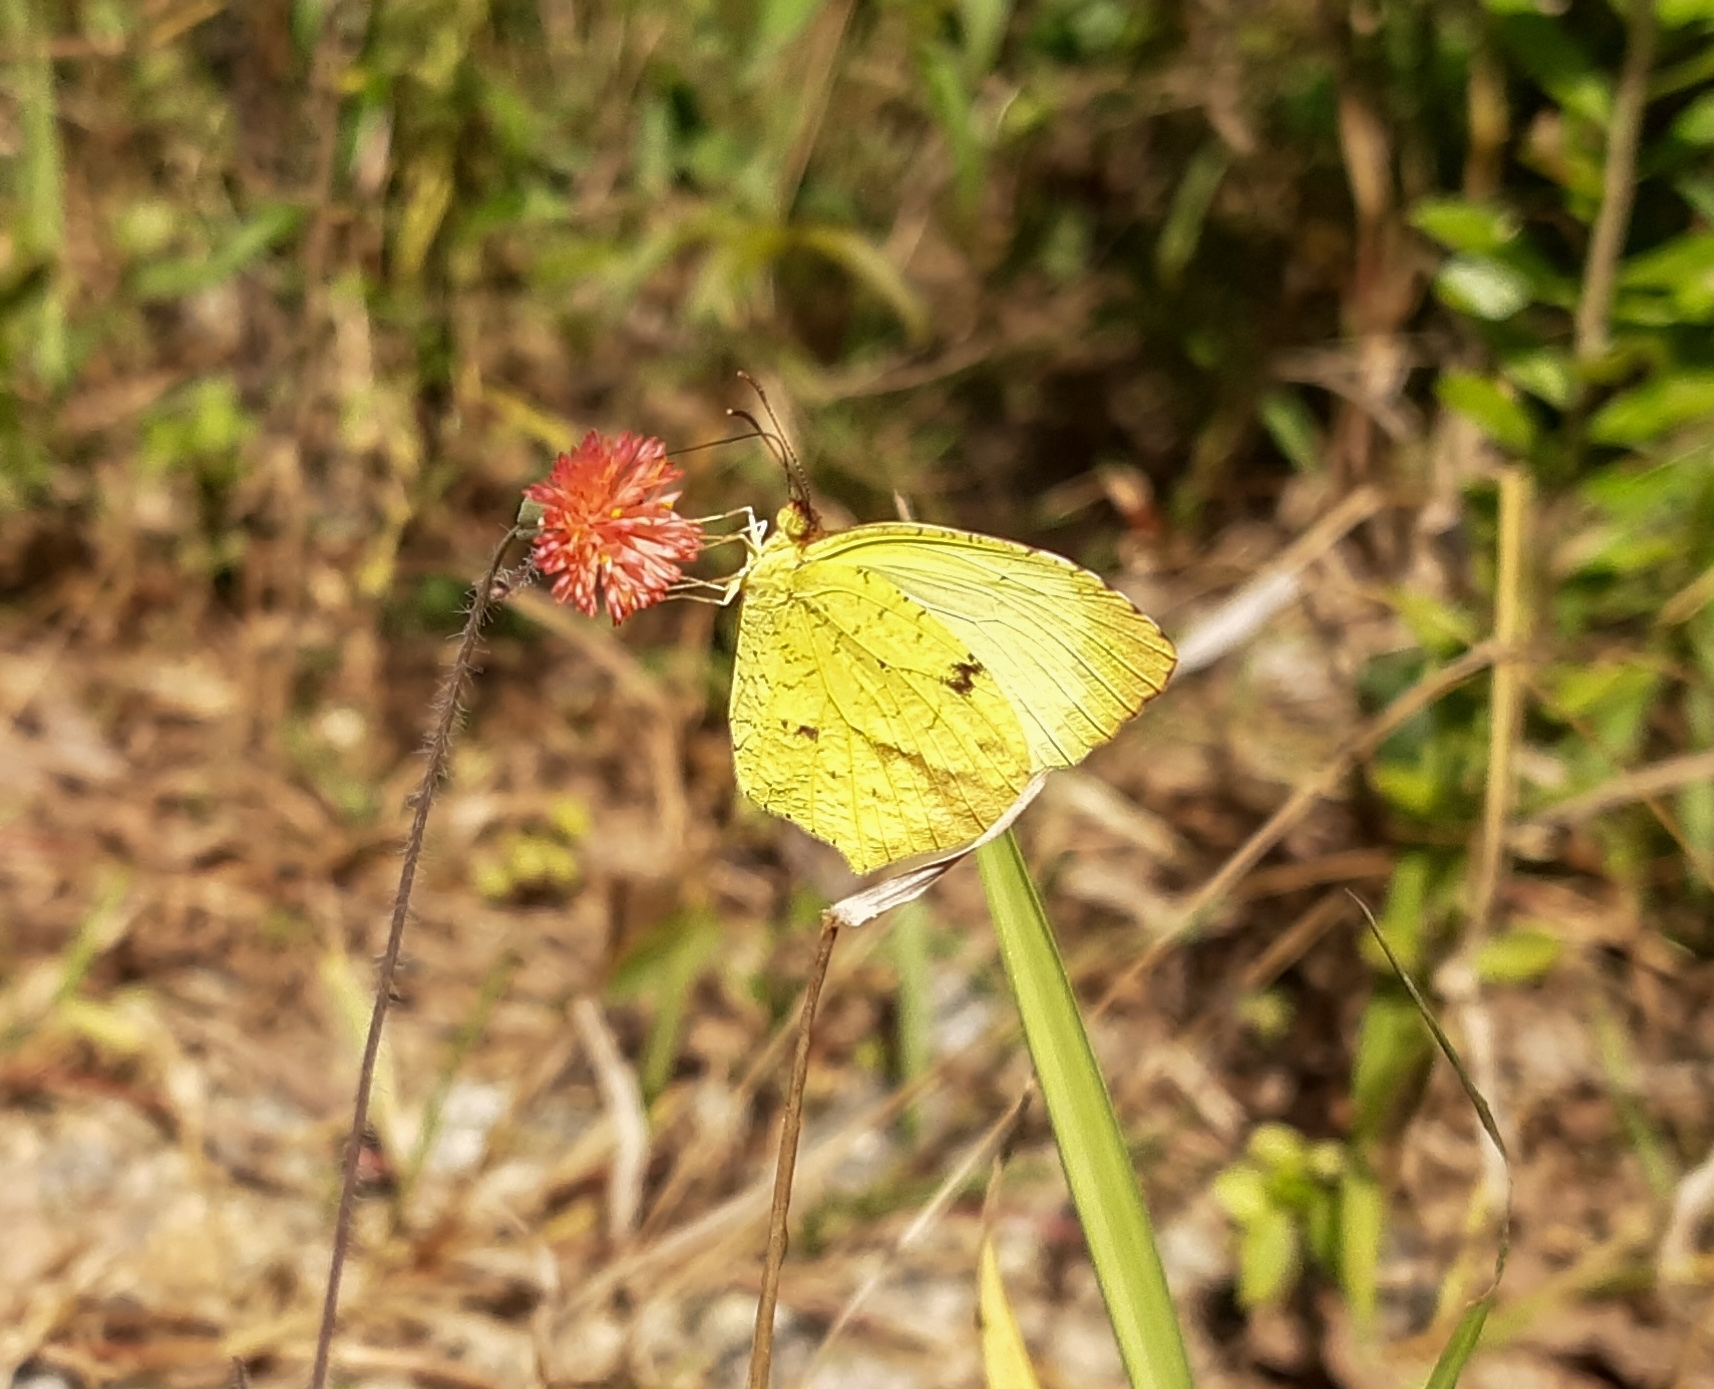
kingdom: Animalia
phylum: Arthropoda
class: Insecta
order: Lepidoptera
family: Pieridae
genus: Abaeis
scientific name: Abaeis
